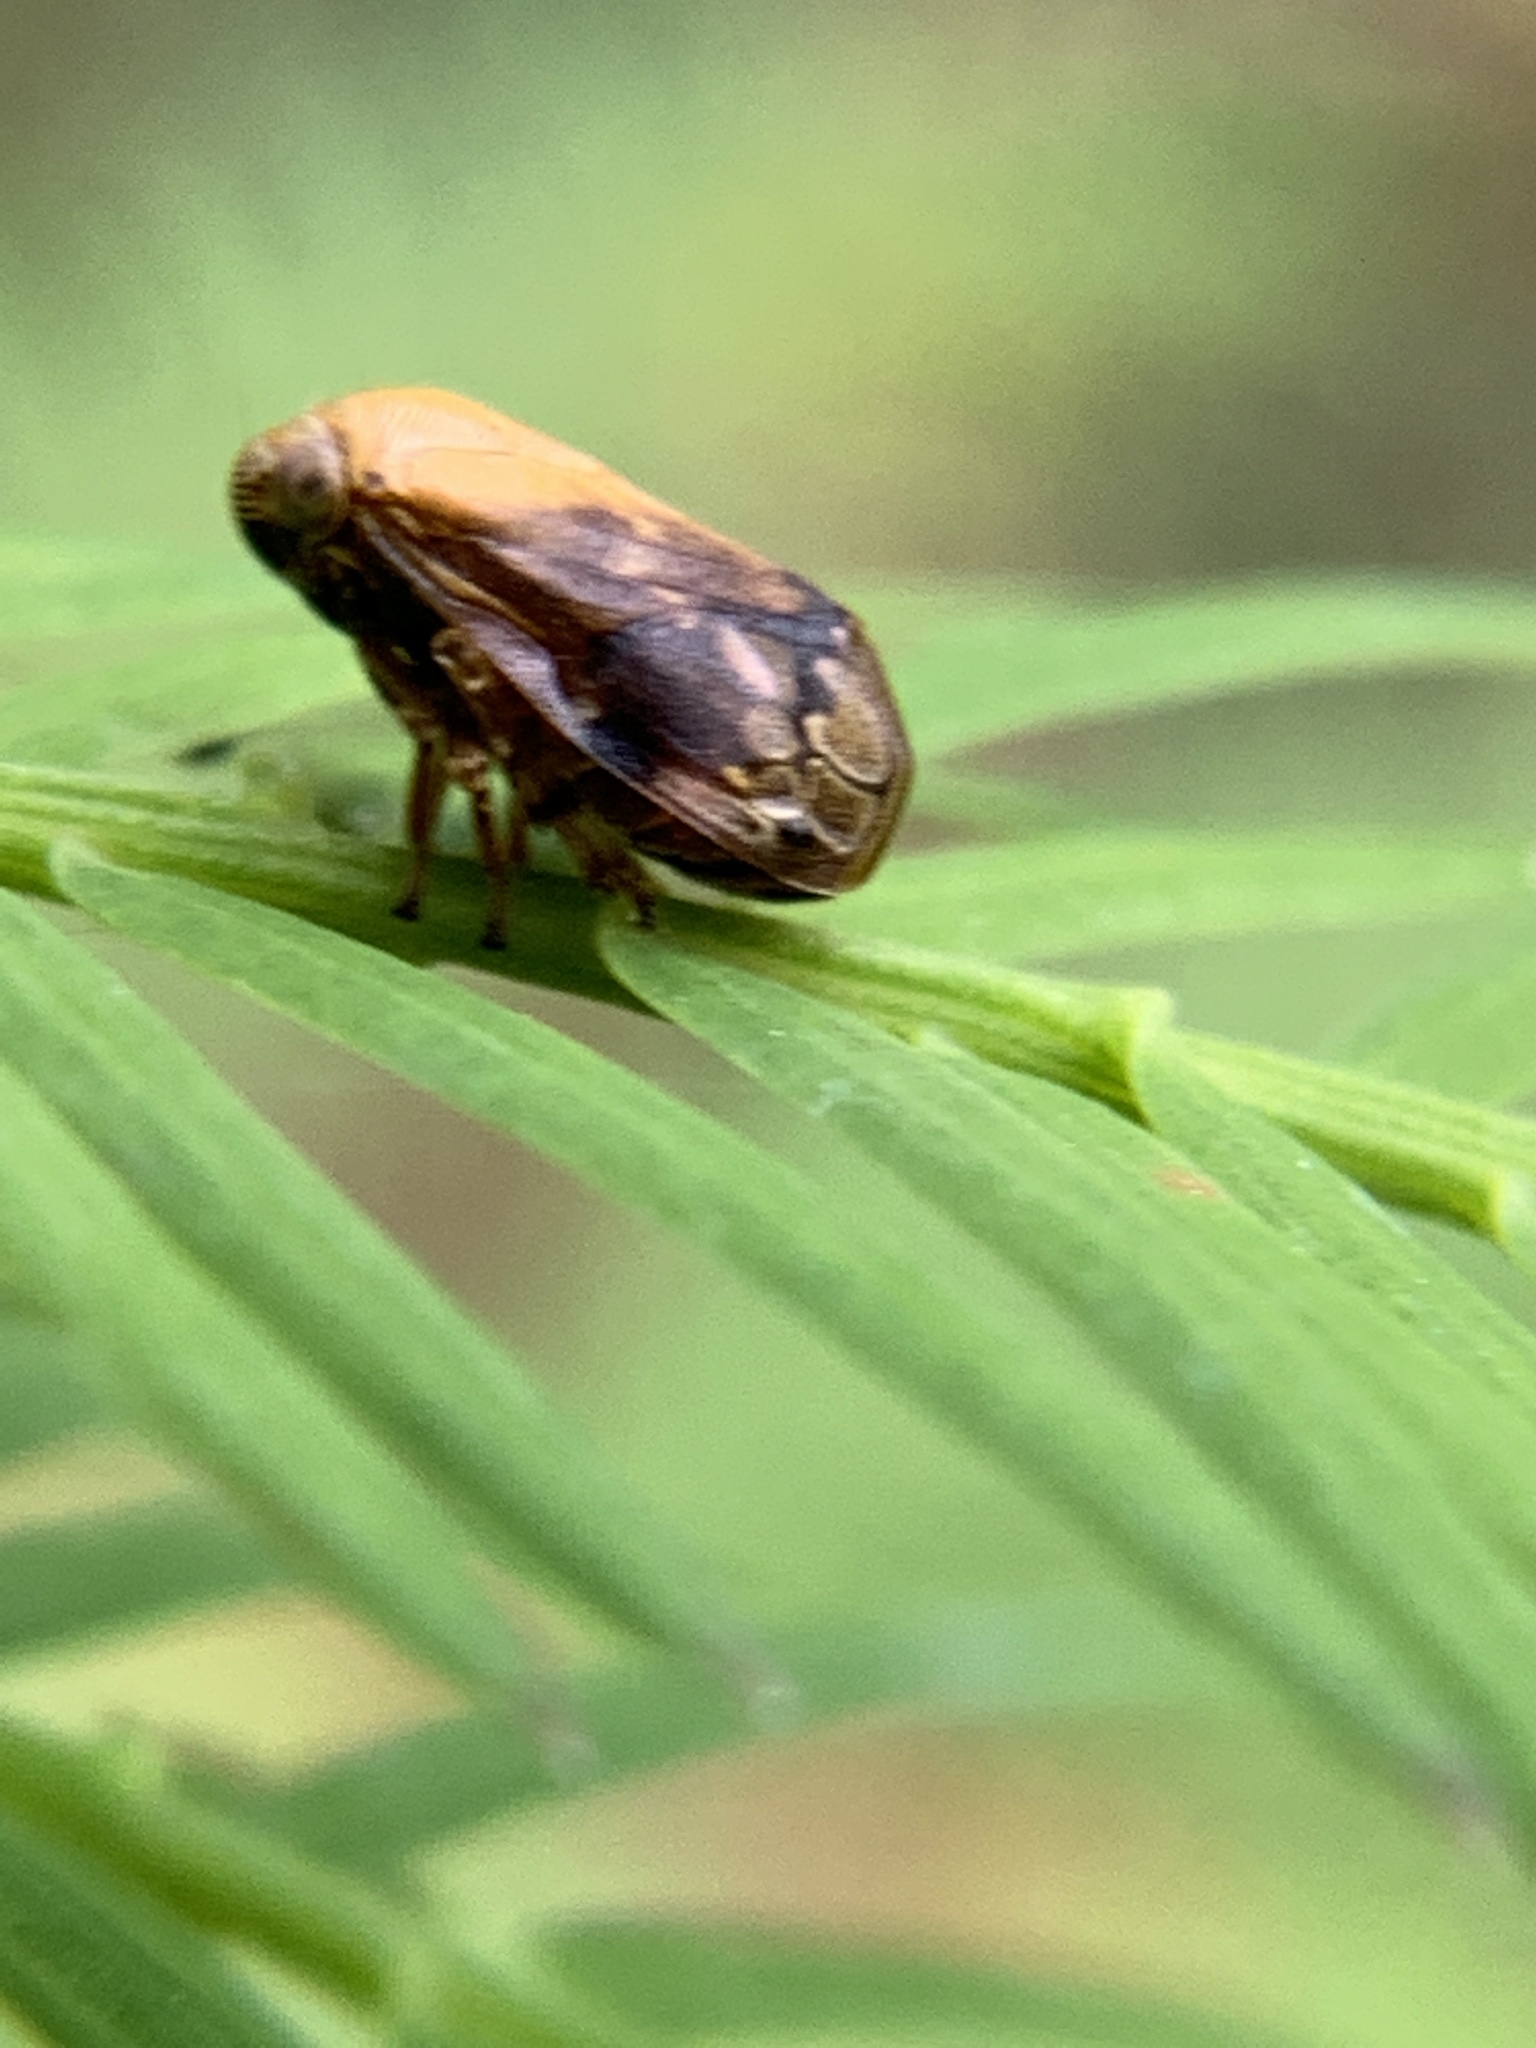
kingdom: Animalia
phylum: Arthropoda
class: Insecta
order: Hemiptera
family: Clastopteridae
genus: Clastoptera
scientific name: Clastoptera achatina
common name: Pecan spittlebug
